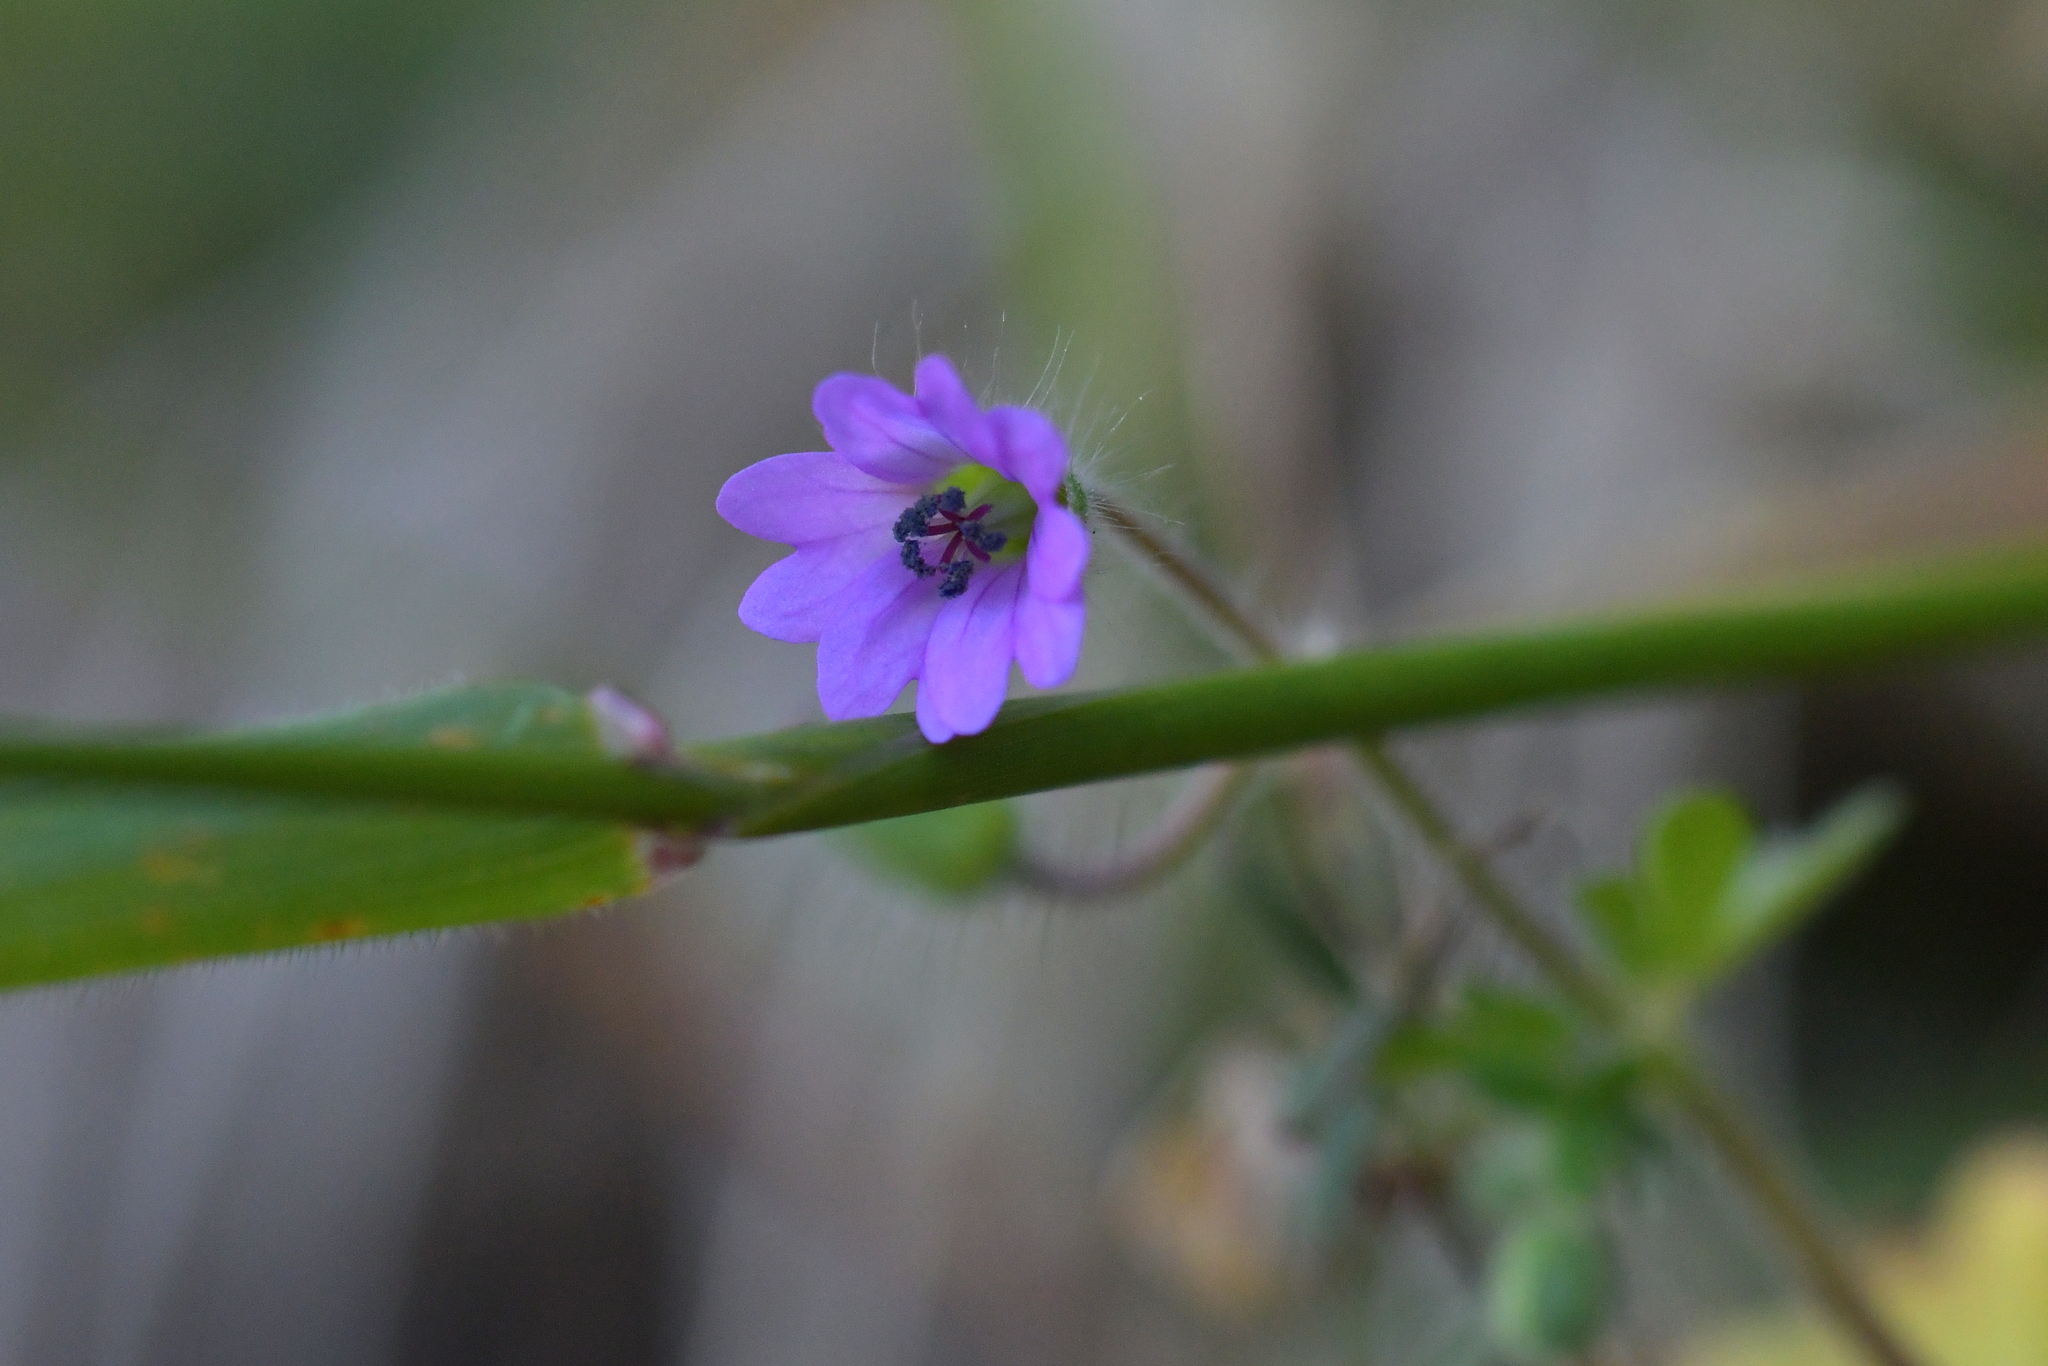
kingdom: Plantae
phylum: Tracheophyta
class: Magnoliopsida
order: Geraniales
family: Geraniaceae
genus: Geranium
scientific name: Geranium molle
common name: Dove's-foot crane's-bill
